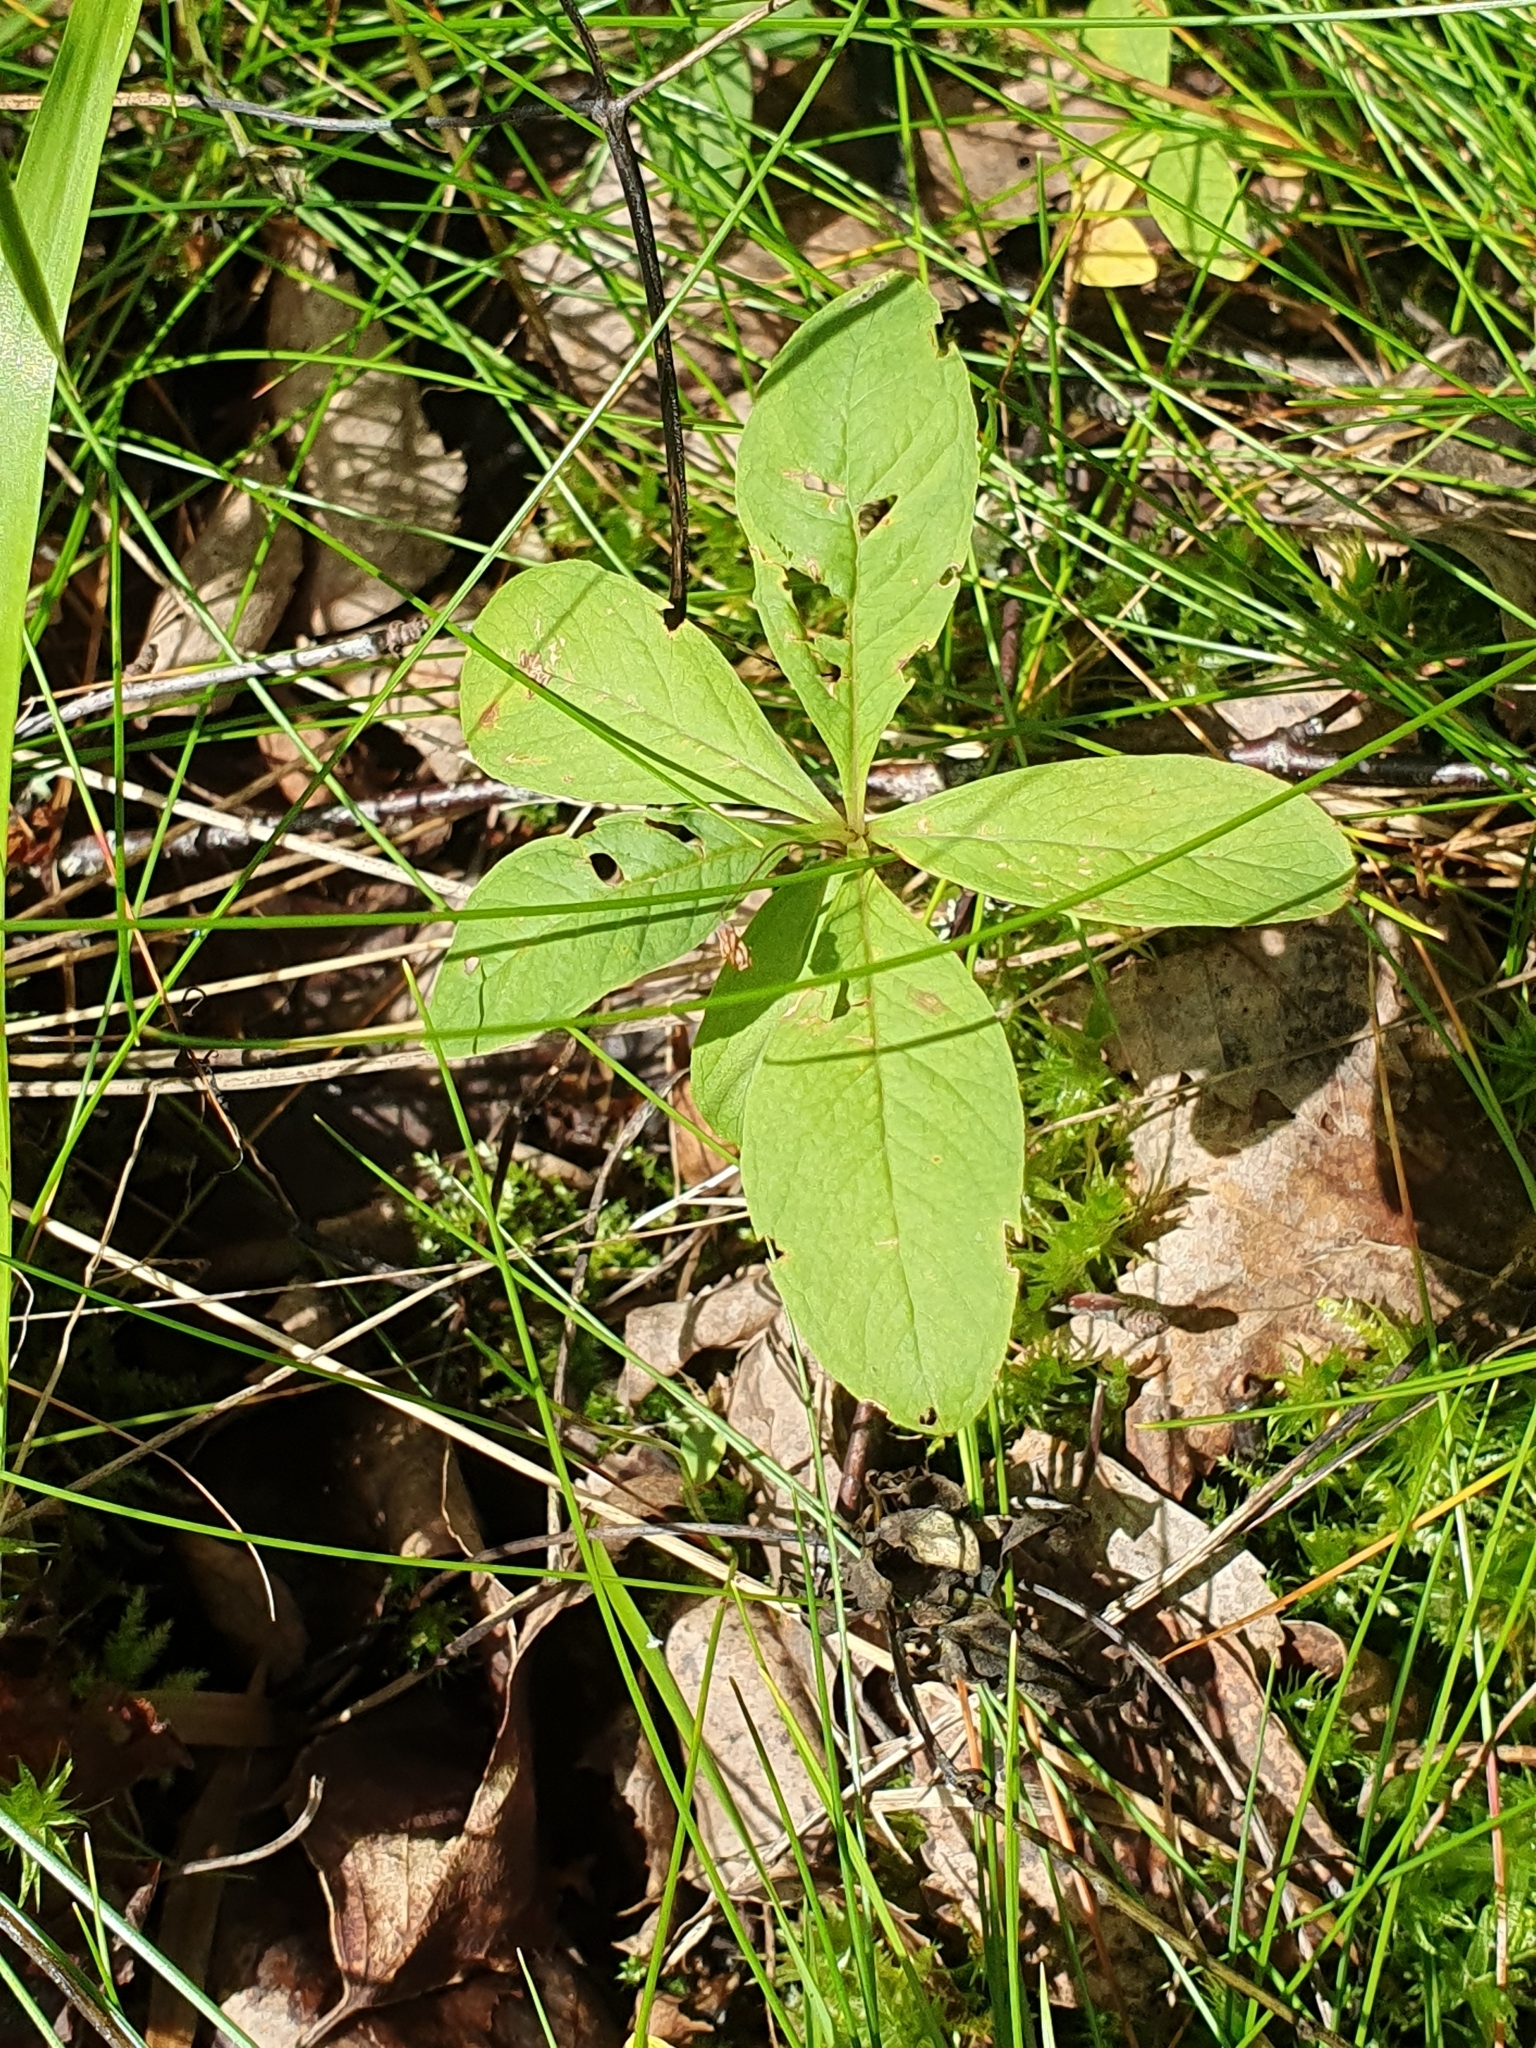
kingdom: Plantae
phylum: Tracheophyta
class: Magnoliopsida
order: Ericales
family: Primulaceae
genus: Lysimachia
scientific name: Lysimachia europaea
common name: Arctic starflower
